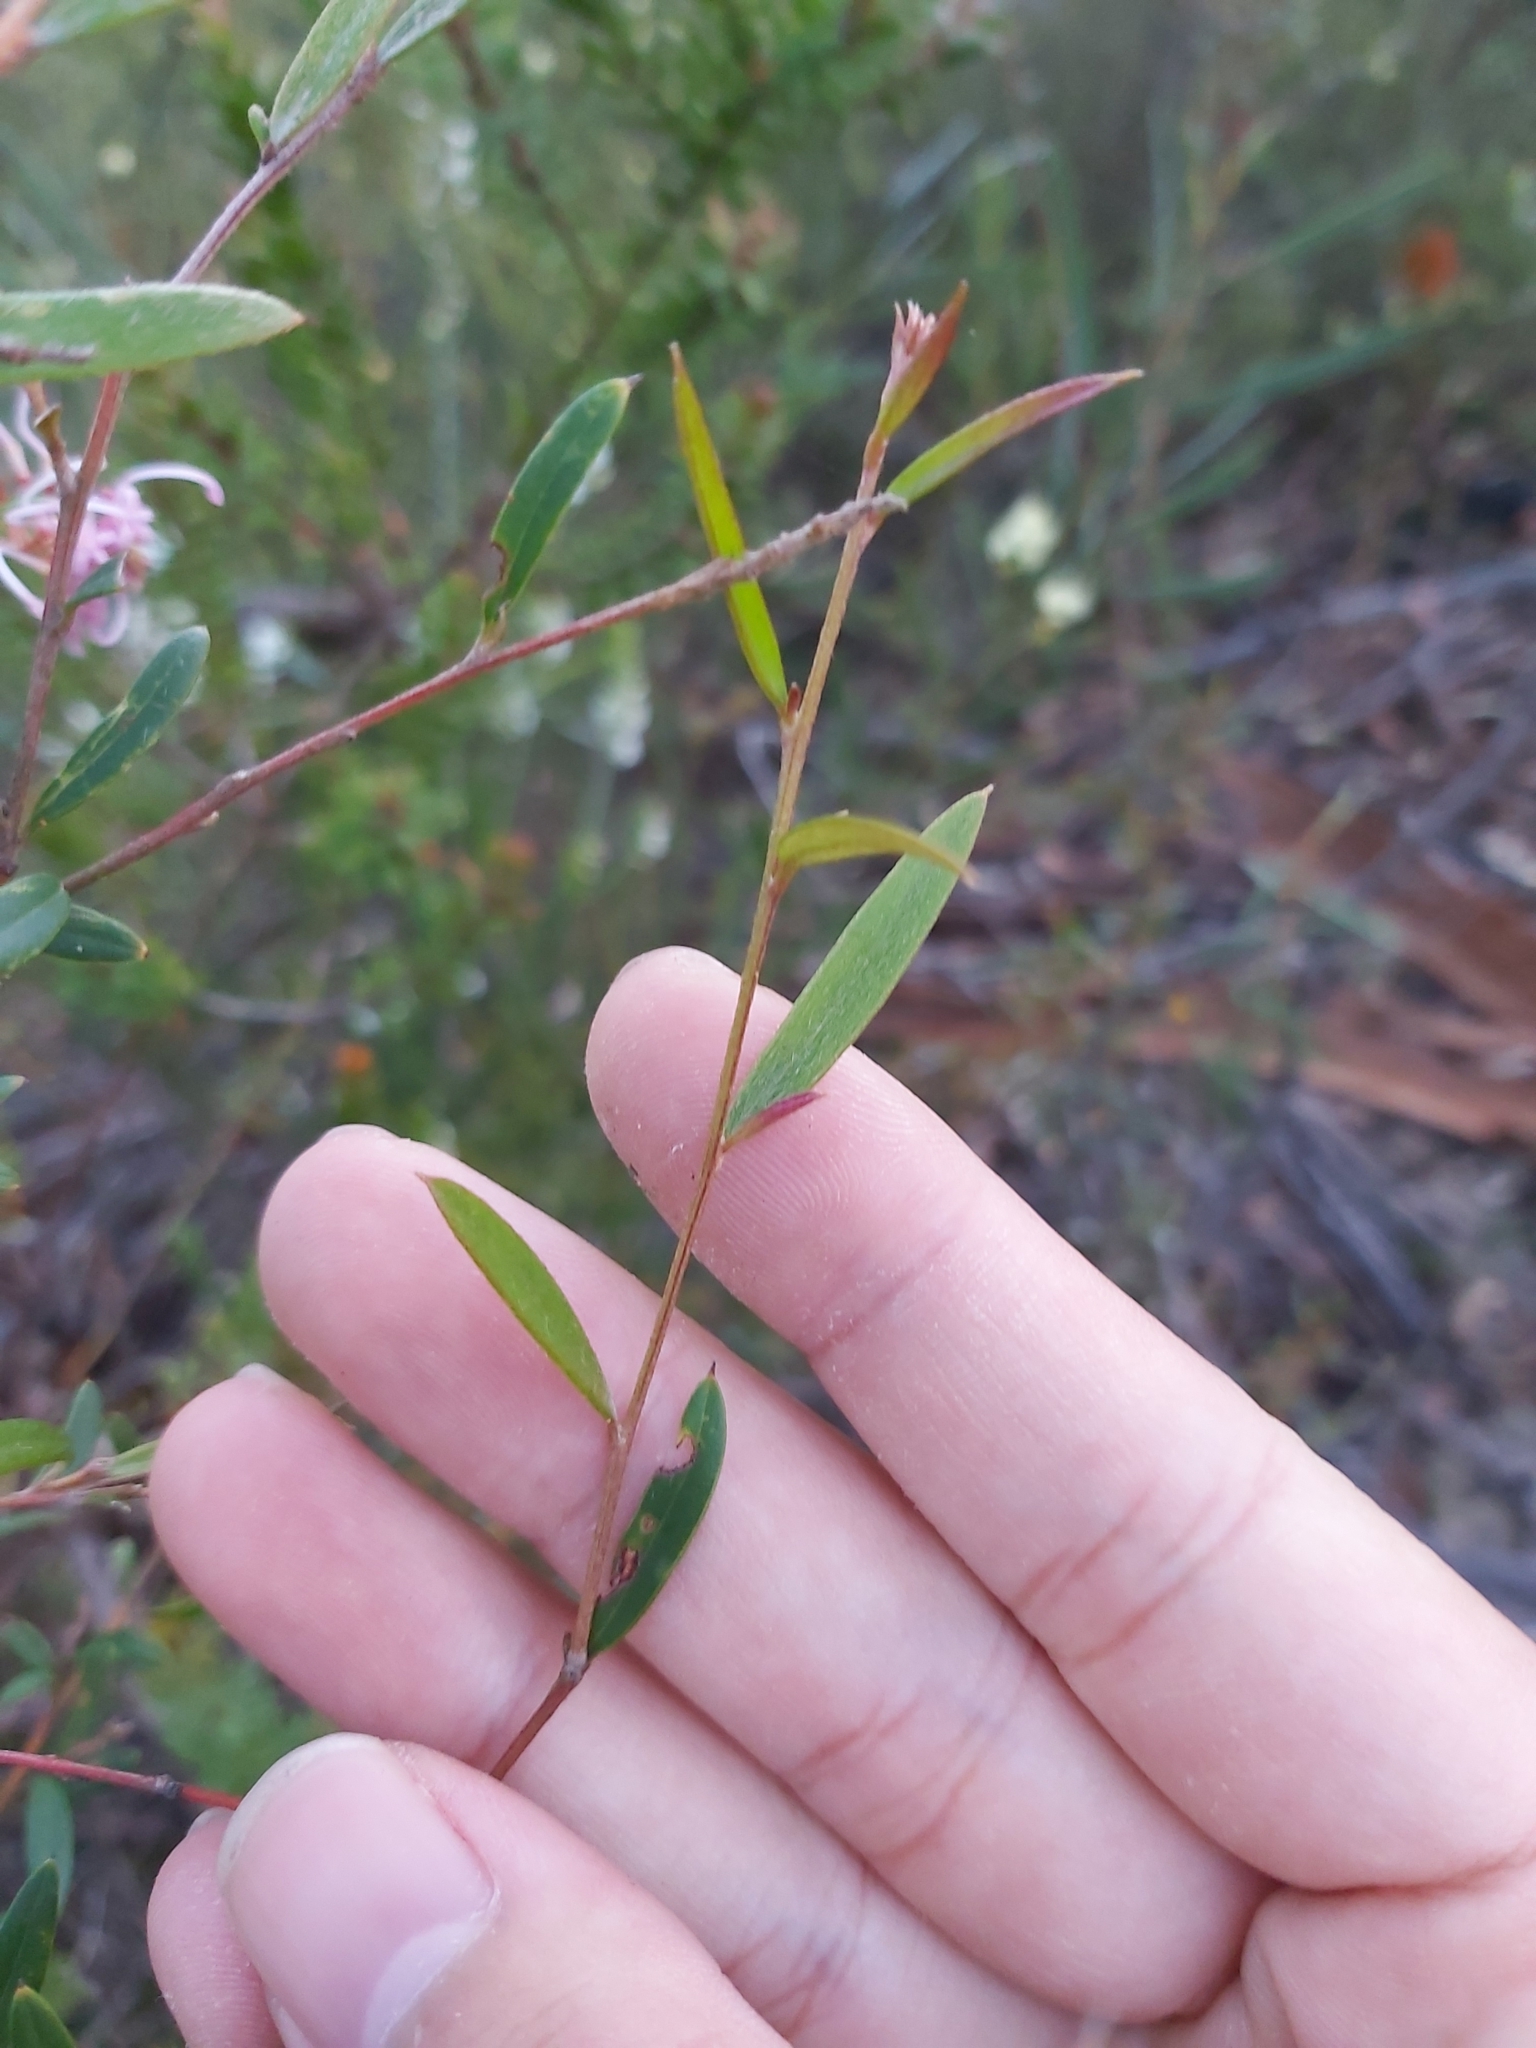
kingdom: Plantae
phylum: Tracheophyta
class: Magnoliopsida
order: Proteales
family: Proteaceae
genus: Grevillea
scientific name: Grevillea sericea
